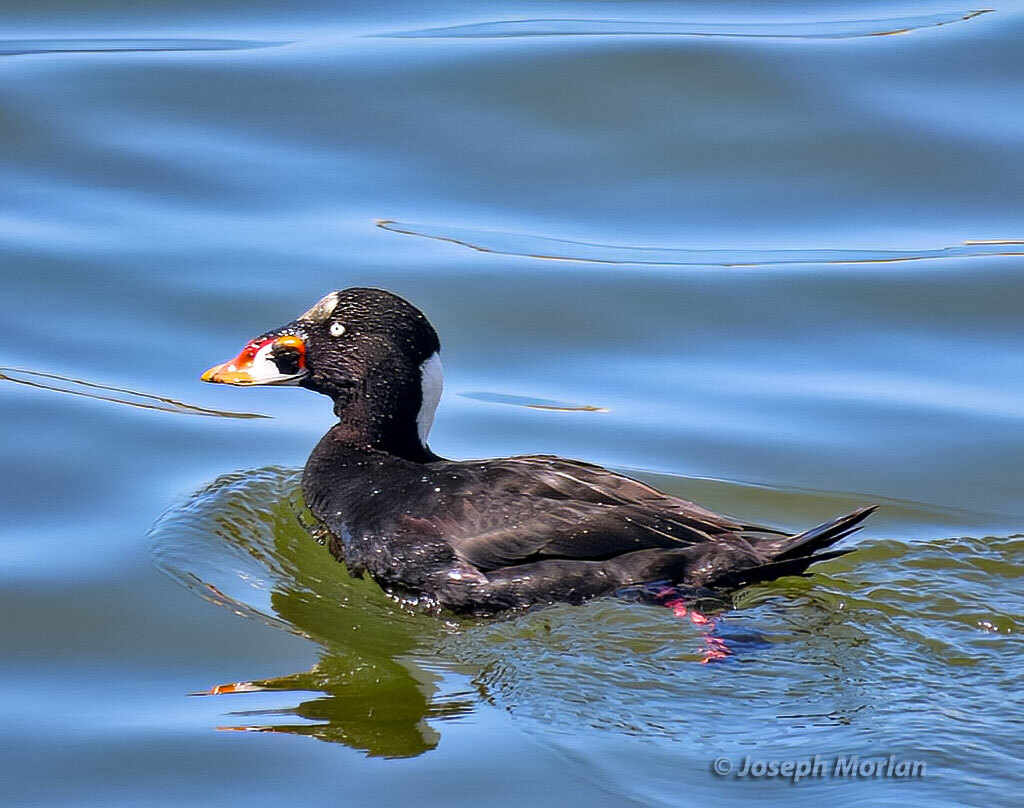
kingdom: Animalia
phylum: Chordata
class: Aves
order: Anseriformes
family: Anatidae
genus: Melanitta
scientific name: Melanitta perspicillata
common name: Surf scoter
